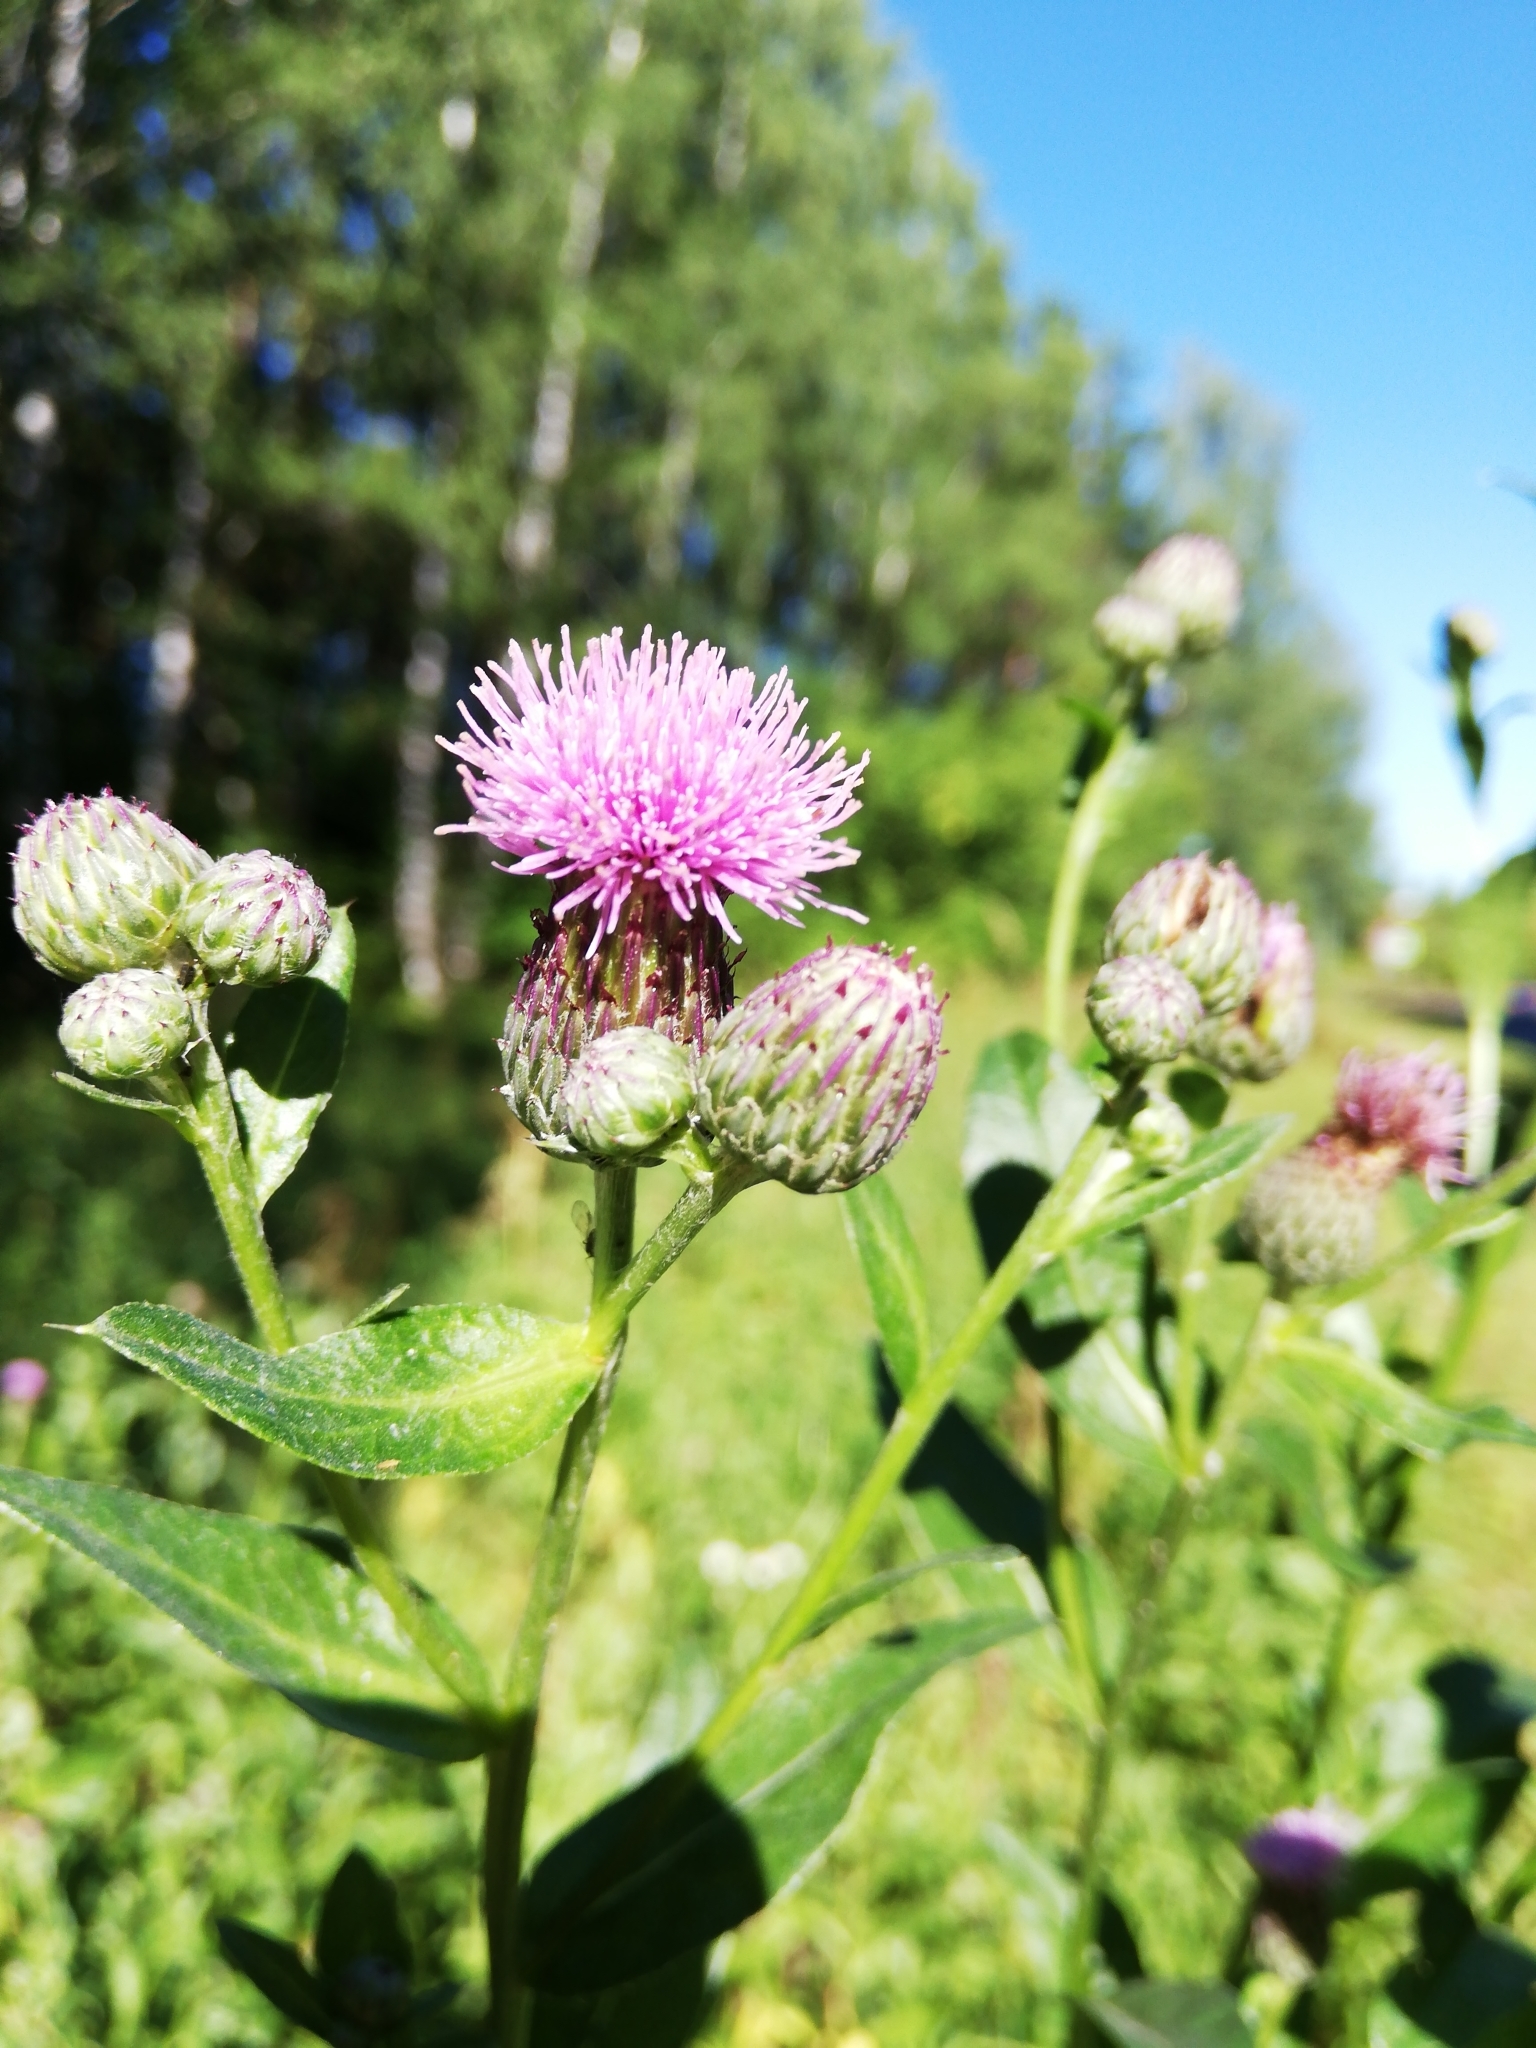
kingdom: Plantae
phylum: Tracheophyta
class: Magnoliopsida
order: Asterales
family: Asteraceae
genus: Cirsium
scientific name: Cirsium arvense
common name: Creeping thistle
